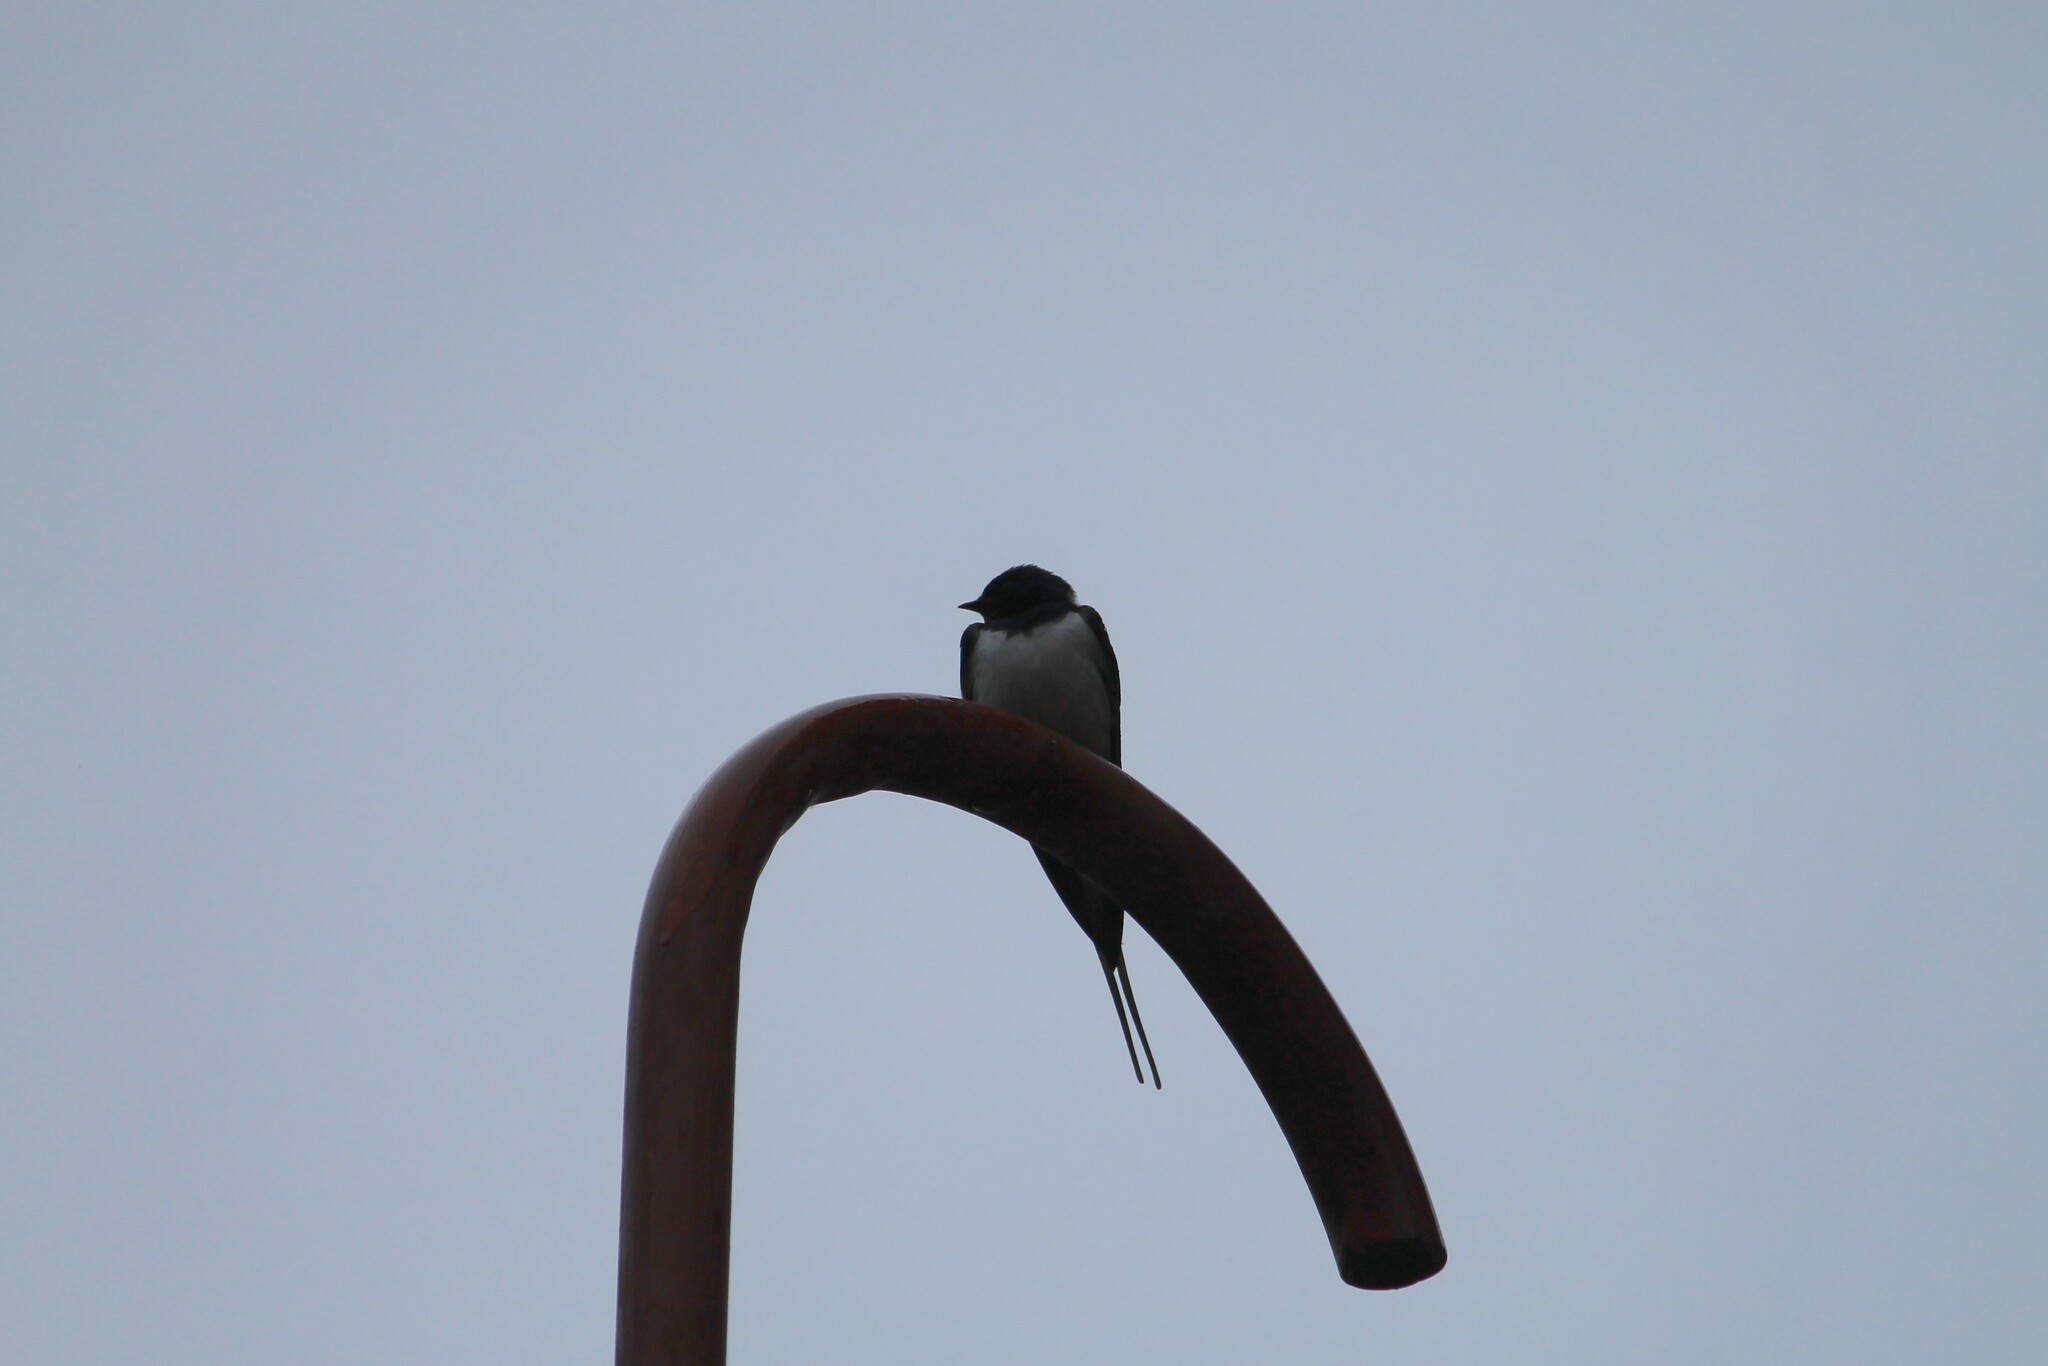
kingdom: Animalia
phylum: Chordata
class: Aves
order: Passeriformes
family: Hirundinidae
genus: Hirundo
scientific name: Hirundo rustica
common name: Barn swallow
